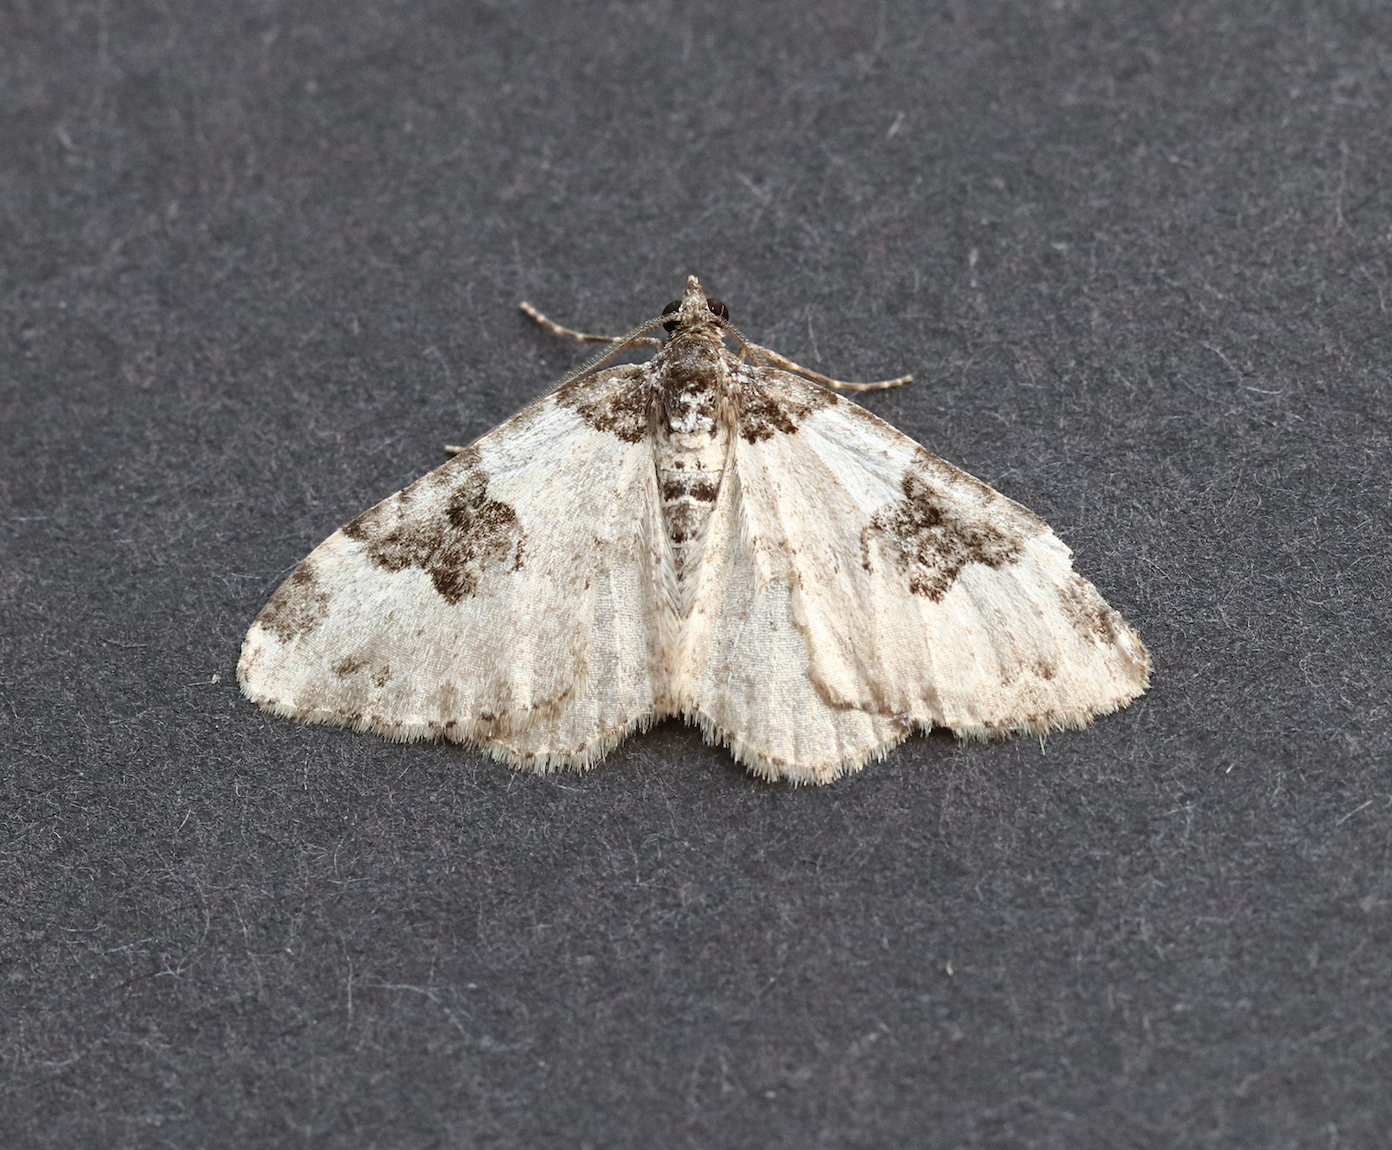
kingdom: Animalia
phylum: Arthropoda
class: Insecta
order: Lepidoptera
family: Geometridae
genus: Xanthorhoe
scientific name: Xanthorhoe fluctuata
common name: Garden carpet
